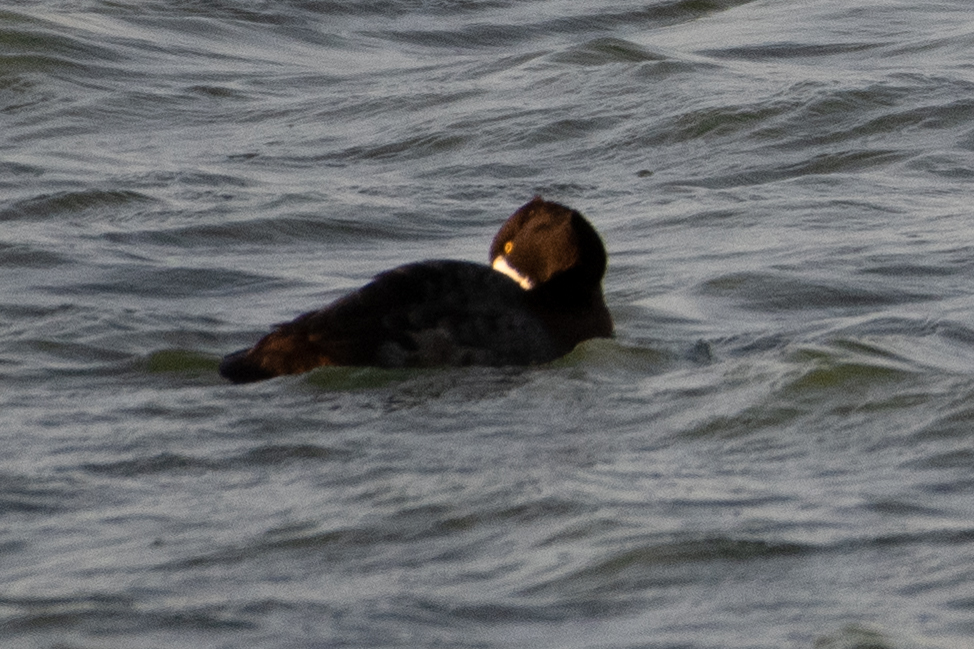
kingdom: Animalia
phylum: Chordata
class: Aves
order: Anseriformes
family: Anatidae
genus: Aythya
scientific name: Aythya affinis
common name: Lesser scaup
